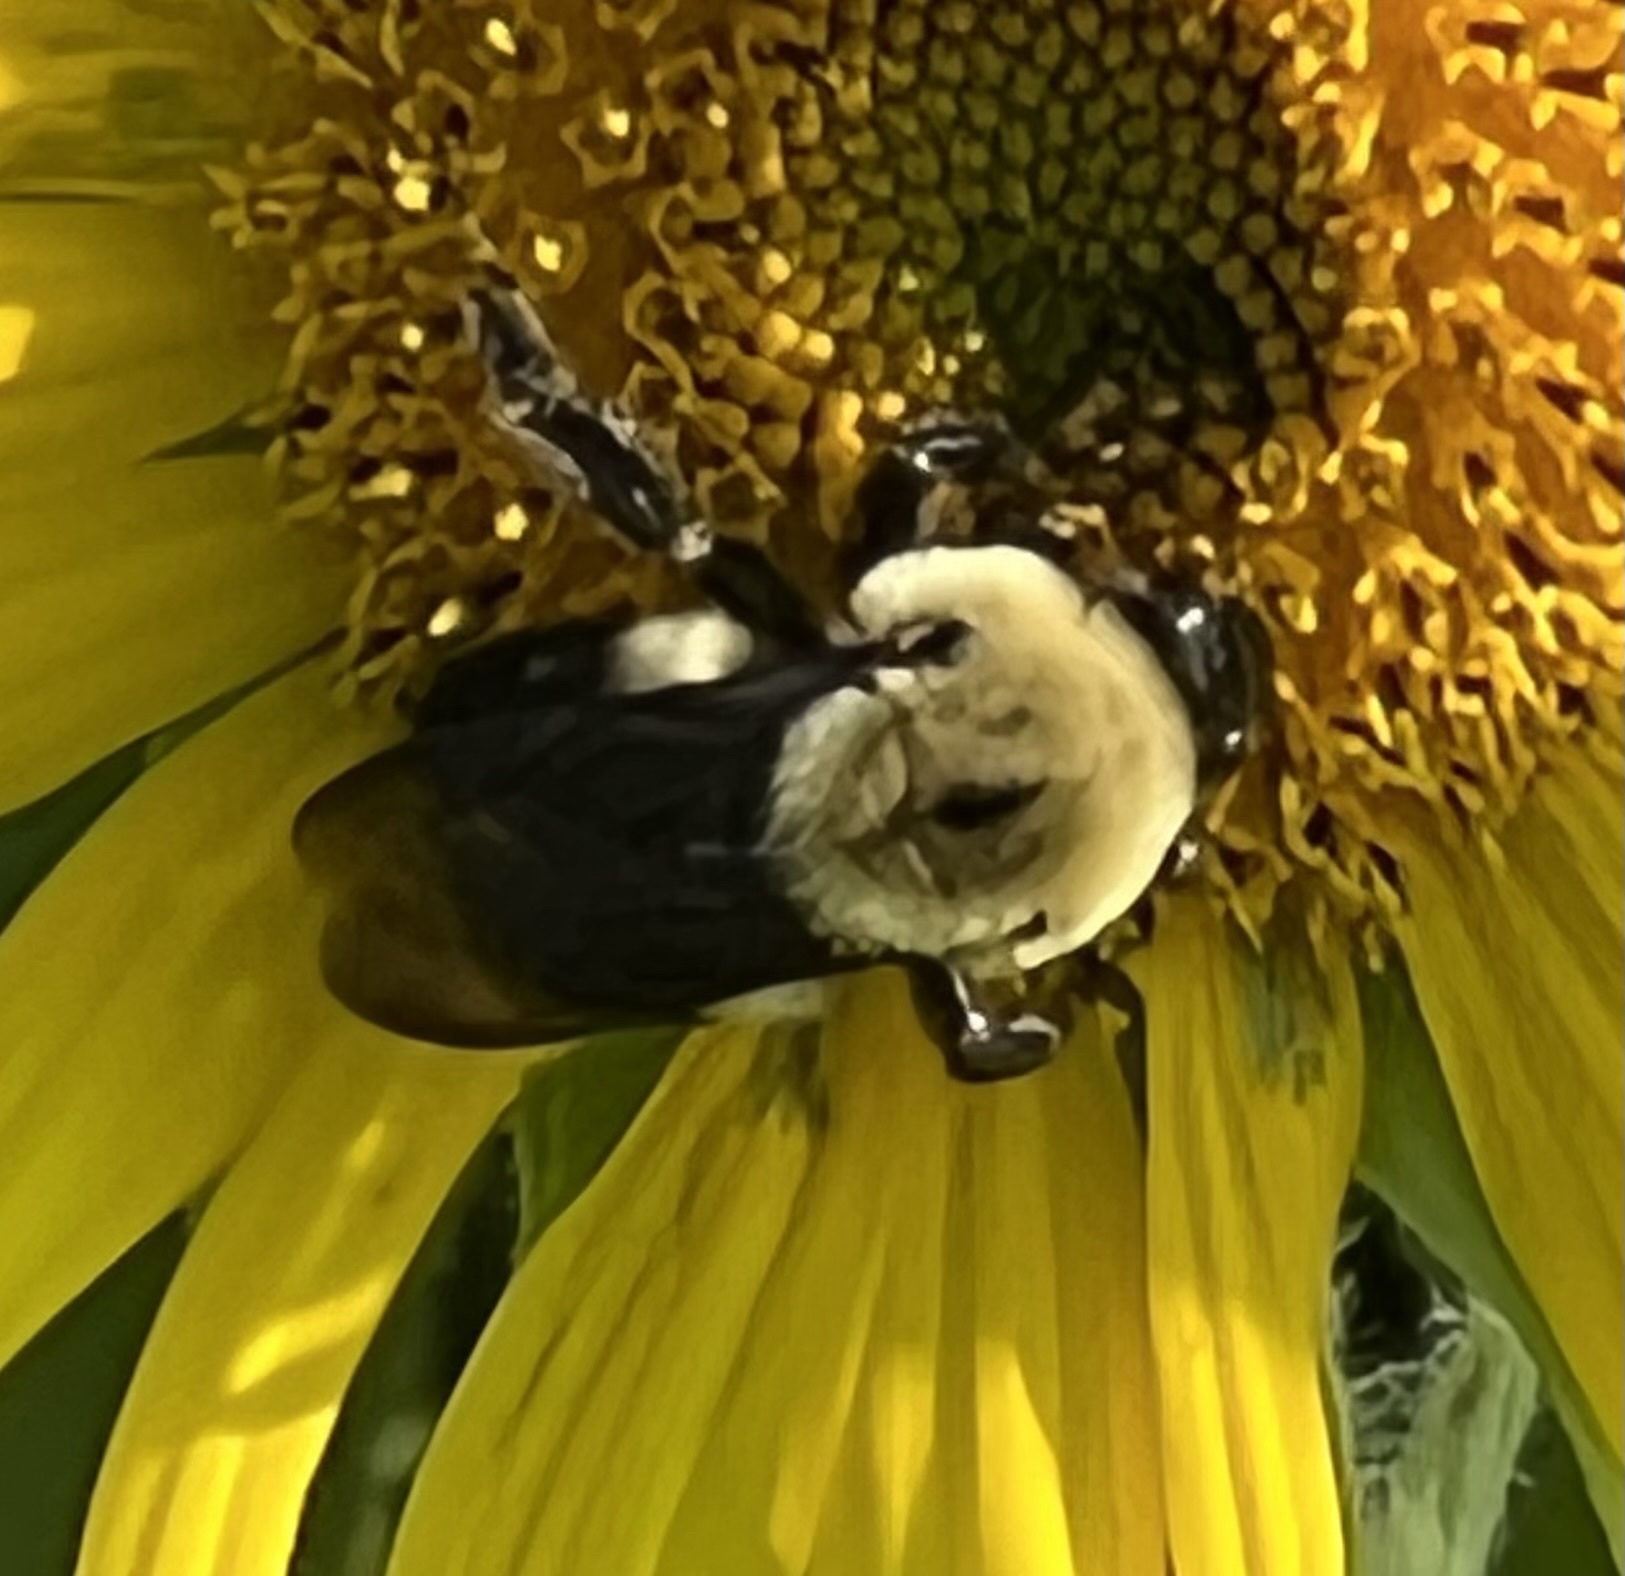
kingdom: Animalia
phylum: Arthropoda
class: Insecta
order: Hymenoptera
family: Apidae
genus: Bombus
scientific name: Bombus griseocollis
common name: Brown-belted bumble bee
